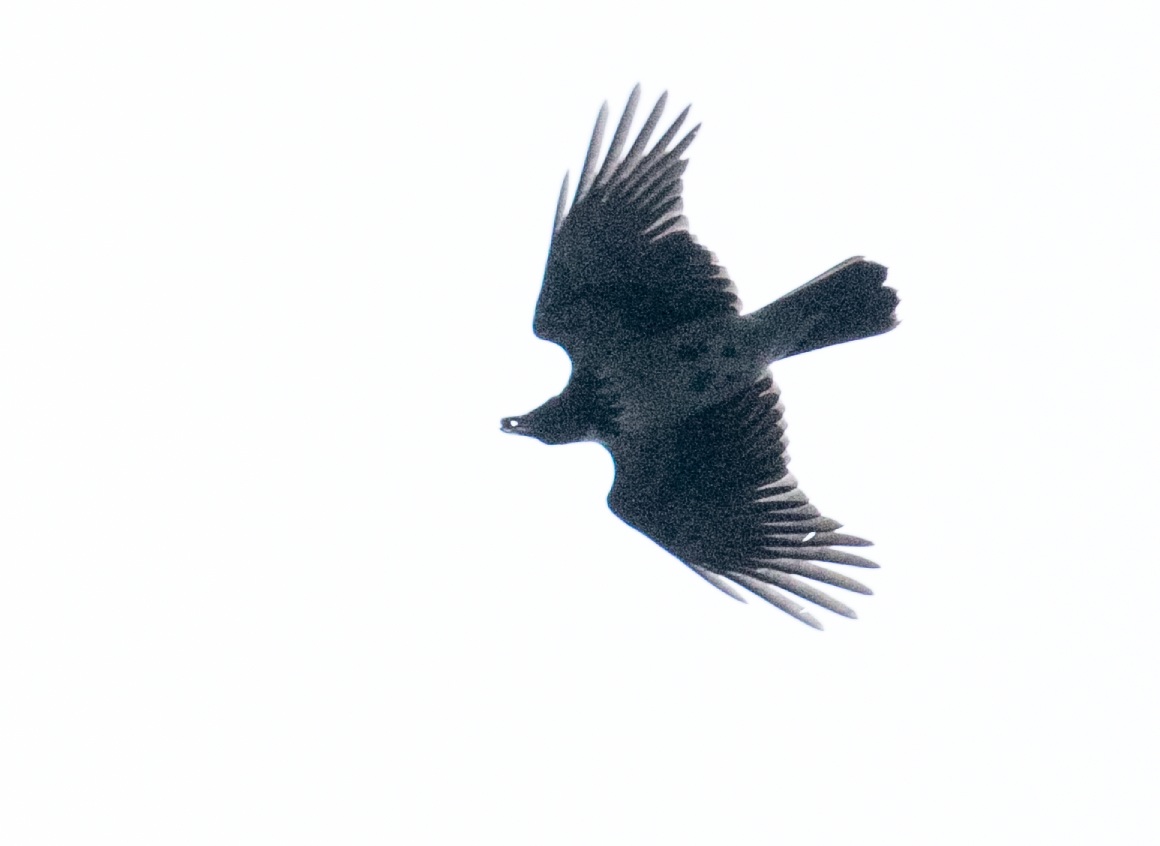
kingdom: Animalia
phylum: Chordata
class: Aves
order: Passeriformes
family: Corvidae
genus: Corvus
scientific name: Corvus cornix
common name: Hooded crow
